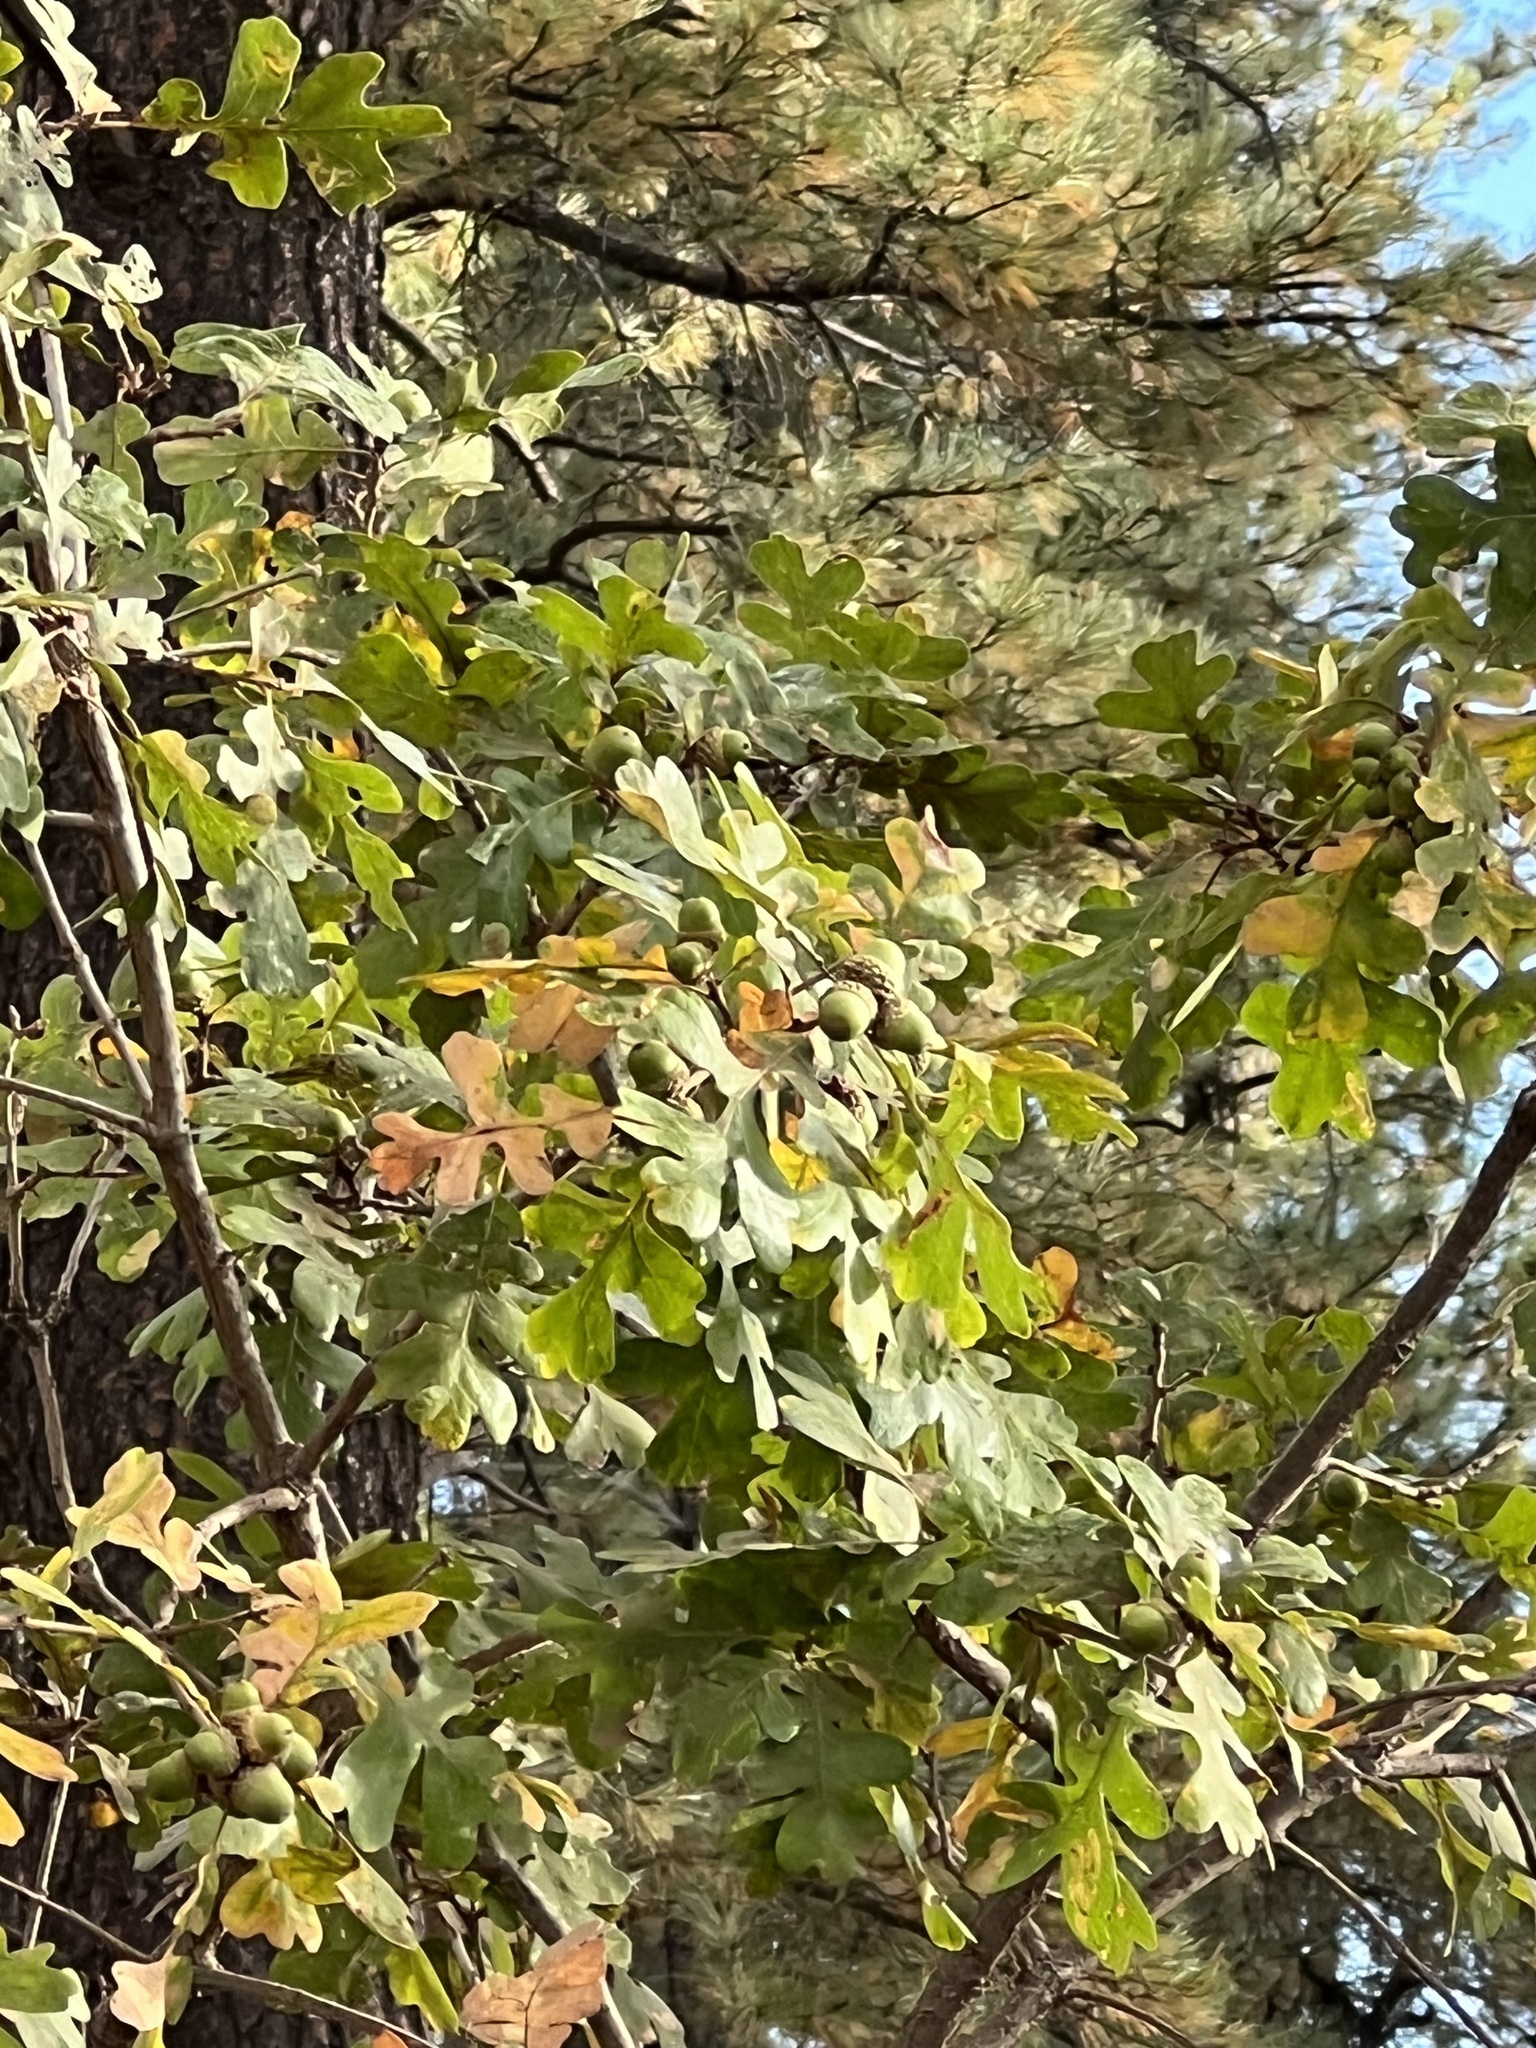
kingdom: Plantae
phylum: Tracheophyta
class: Magnoliopsida
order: Fagales
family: Fagaceae
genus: Quercus
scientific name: Quercus gambelii
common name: Gambel oak
